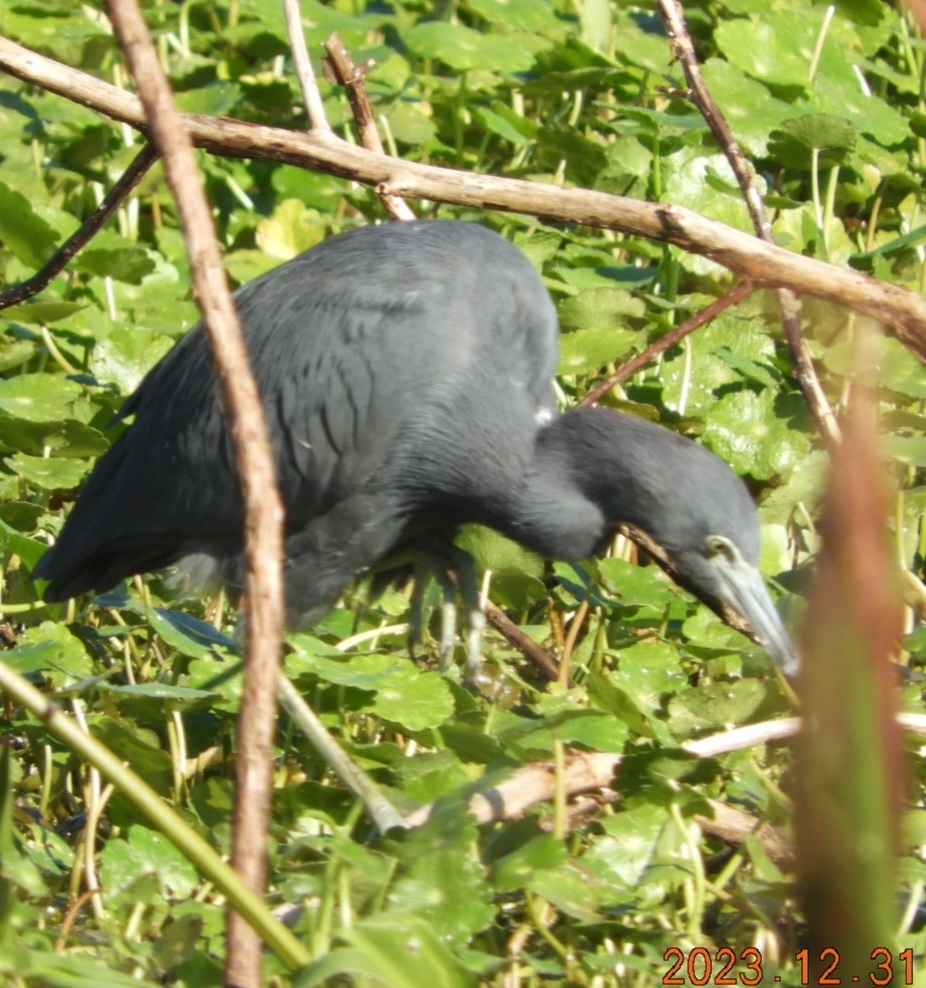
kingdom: Animalia
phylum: Chordata
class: Aves
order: Pelecaniformes
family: Ardeidae
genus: Egretta
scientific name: Egretta caerulea
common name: Little blue heron
